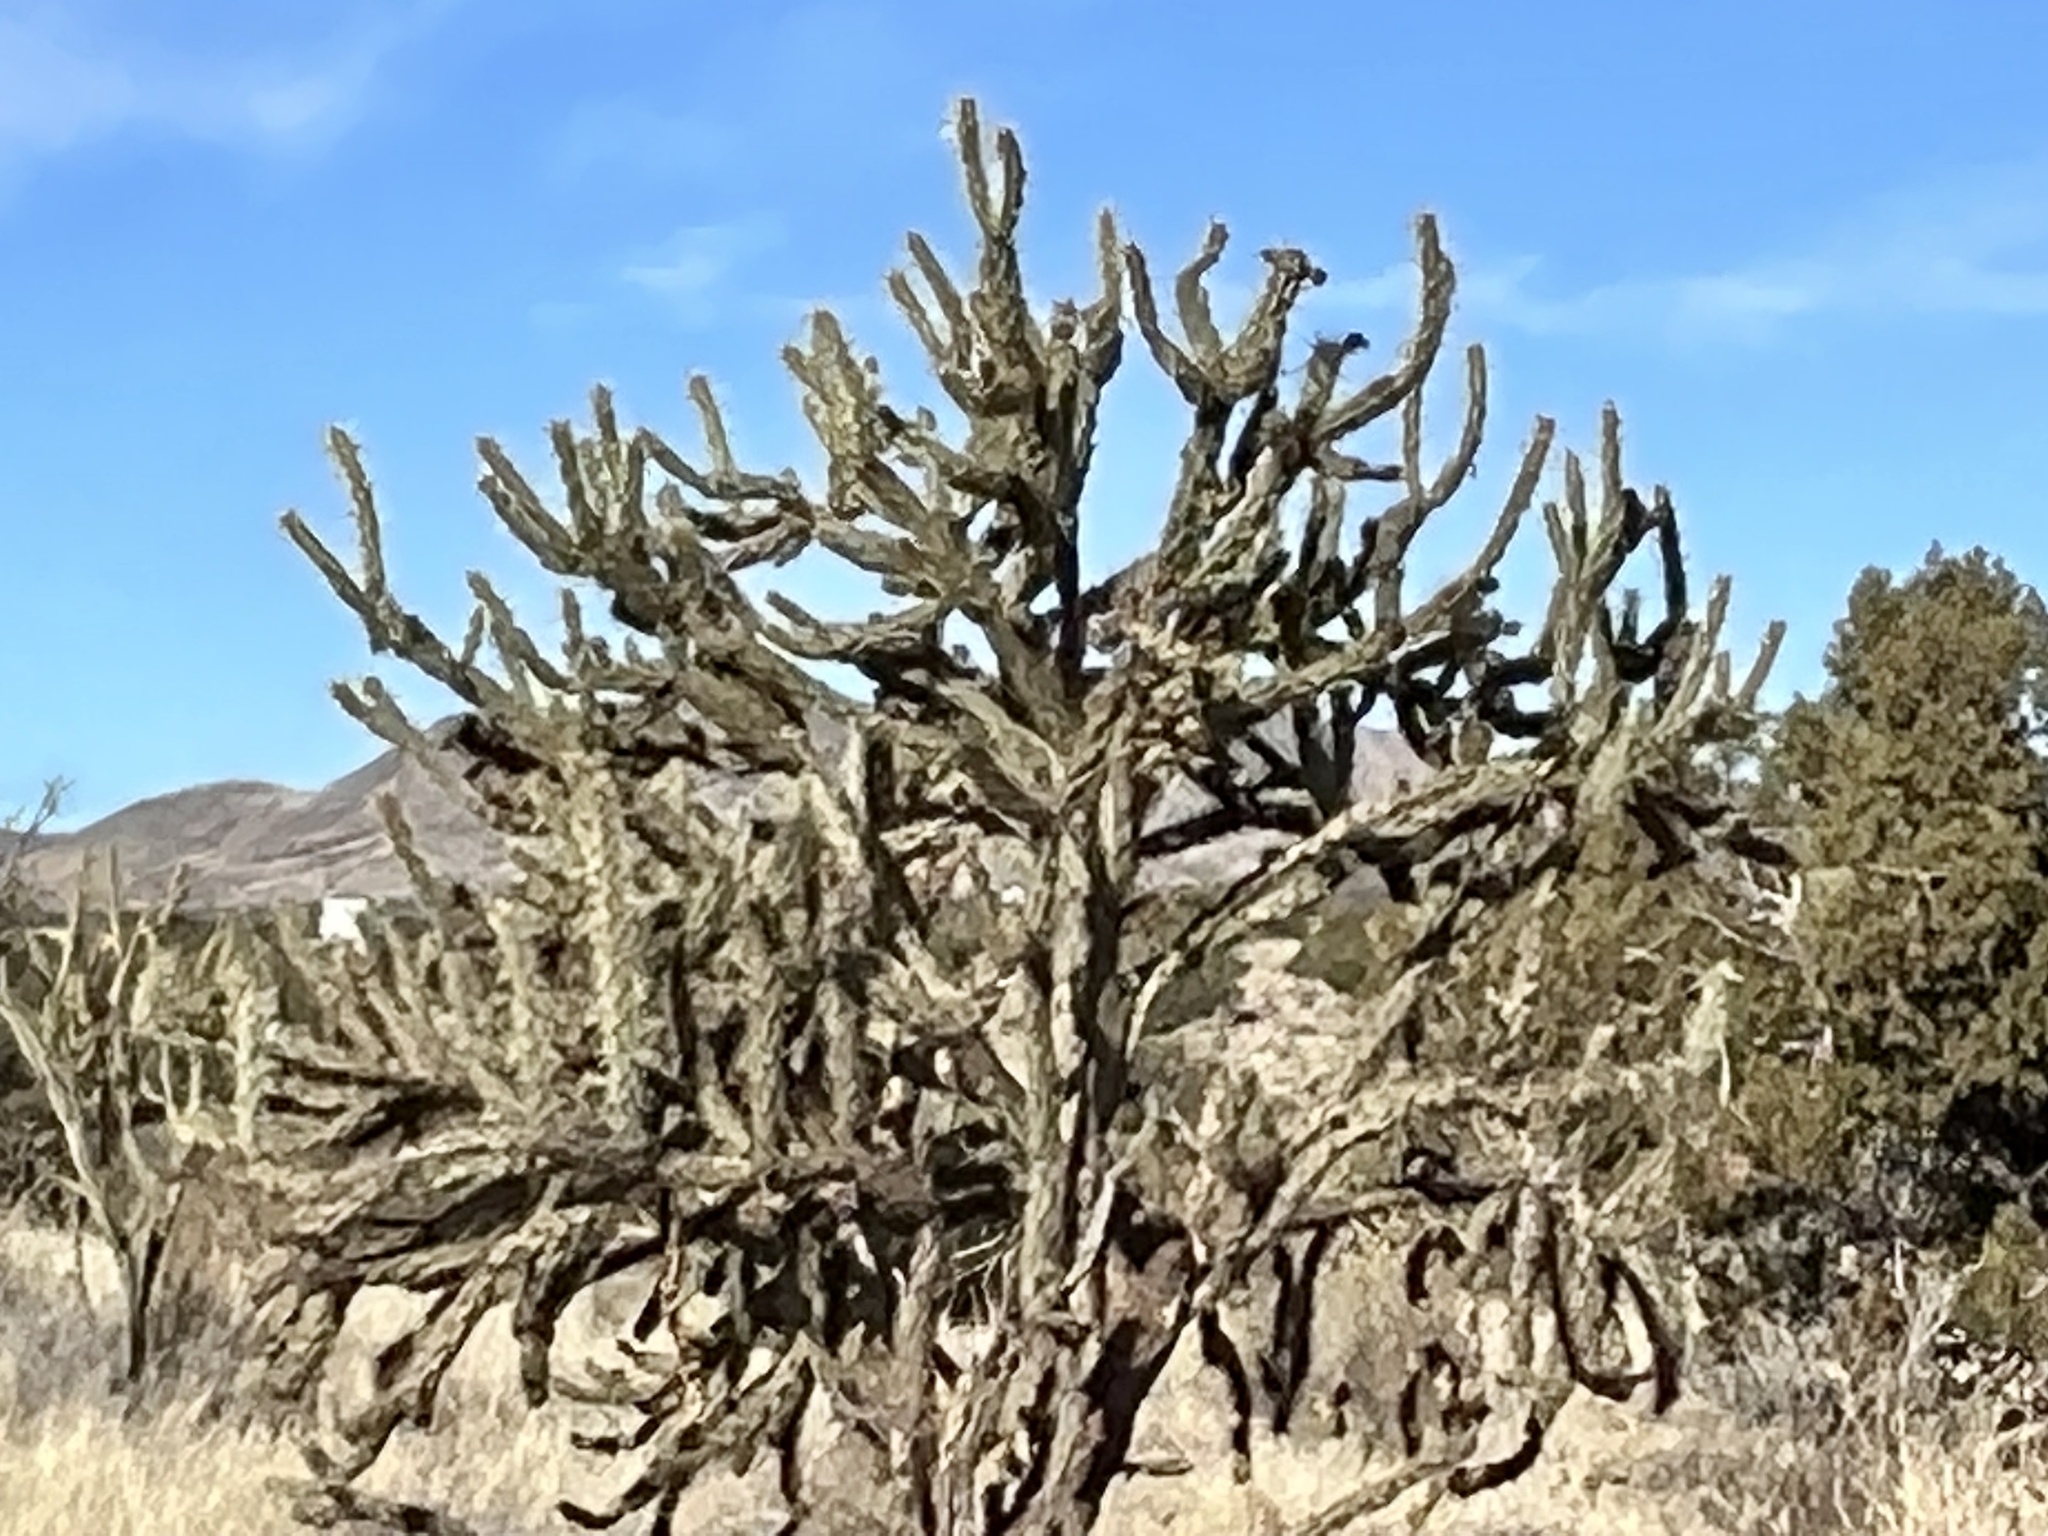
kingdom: Plantae
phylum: Tracheophyta
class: Magnoliopsida
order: Caryophyllales
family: Cactaceae
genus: Cylindropuntia
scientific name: Cylindropuntia acanthocarpa
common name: Buckhorn cholla
